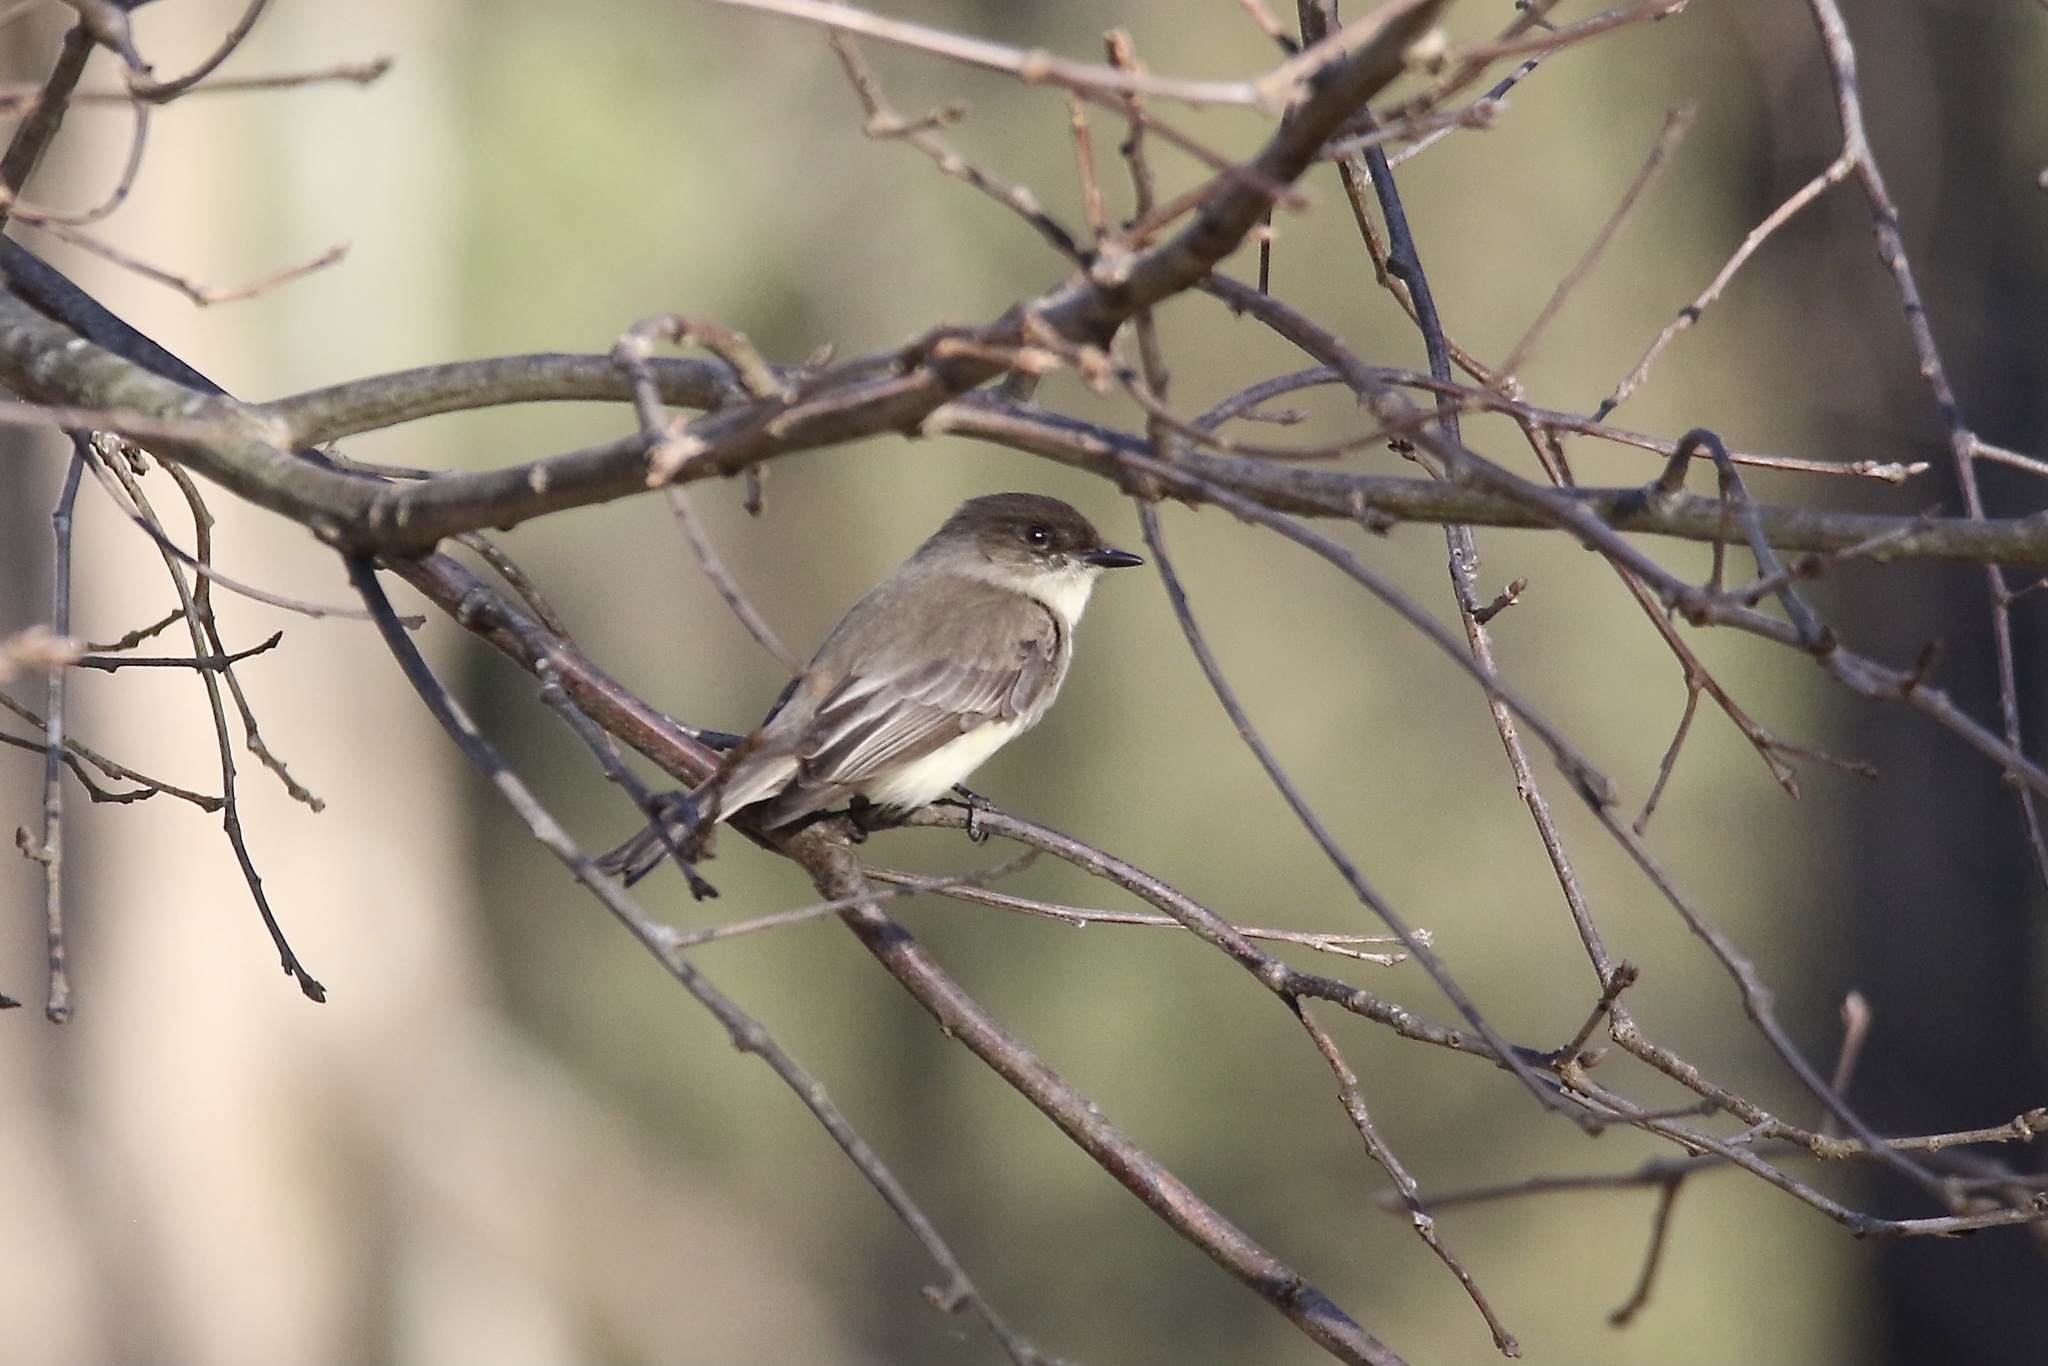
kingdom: Animalia
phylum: Chordata
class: Aves
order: Passeriformes
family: Tyrannidae
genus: Sayornis
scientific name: Sayornis phoebe
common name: Eastern phoebe
